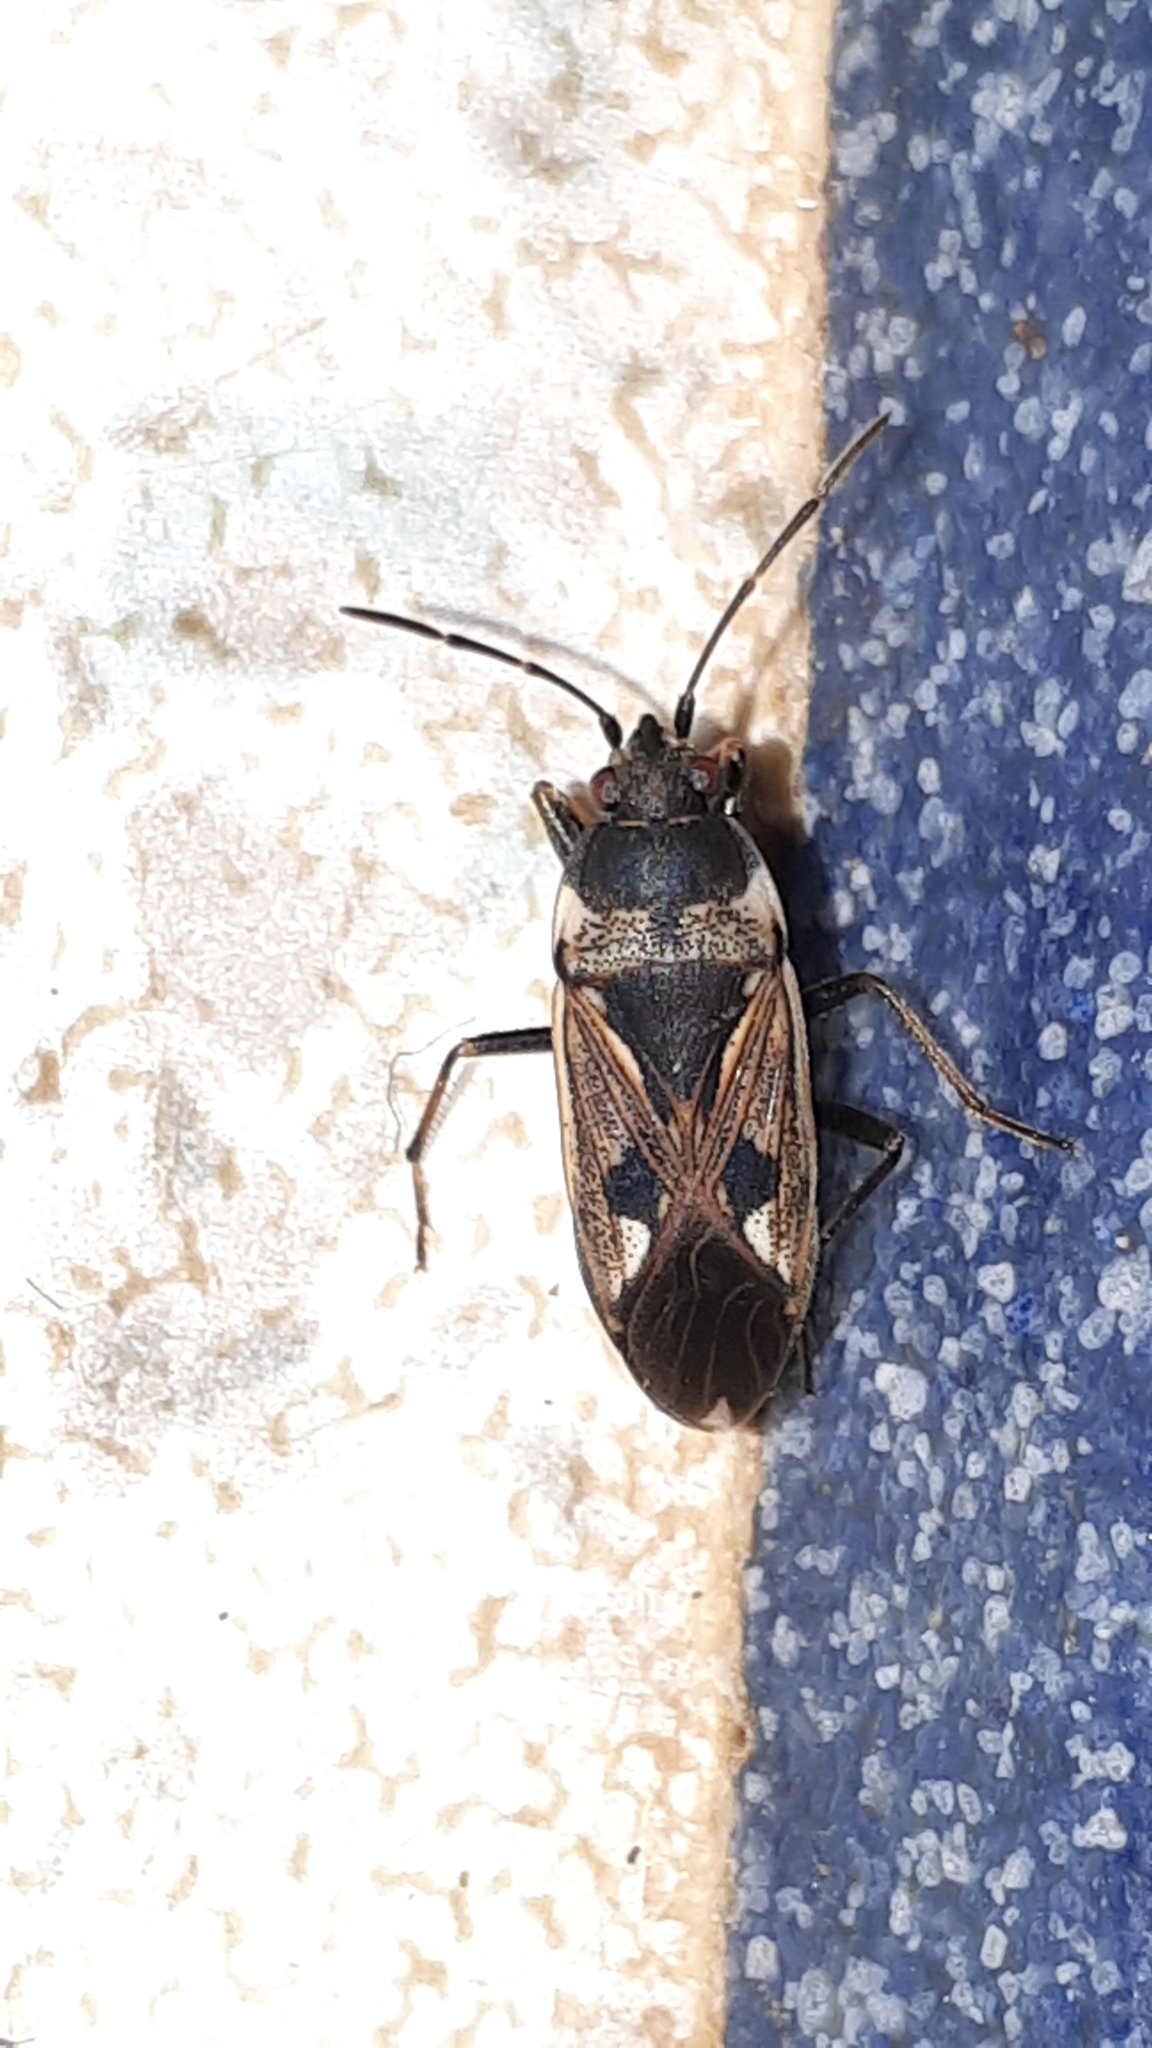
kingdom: Animalia
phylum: Arthropoda
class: Insecta
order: Hemiptera
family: Rhyparochromidae
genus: Rhyparochromus
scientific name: Rhyparochromus vulgaris
